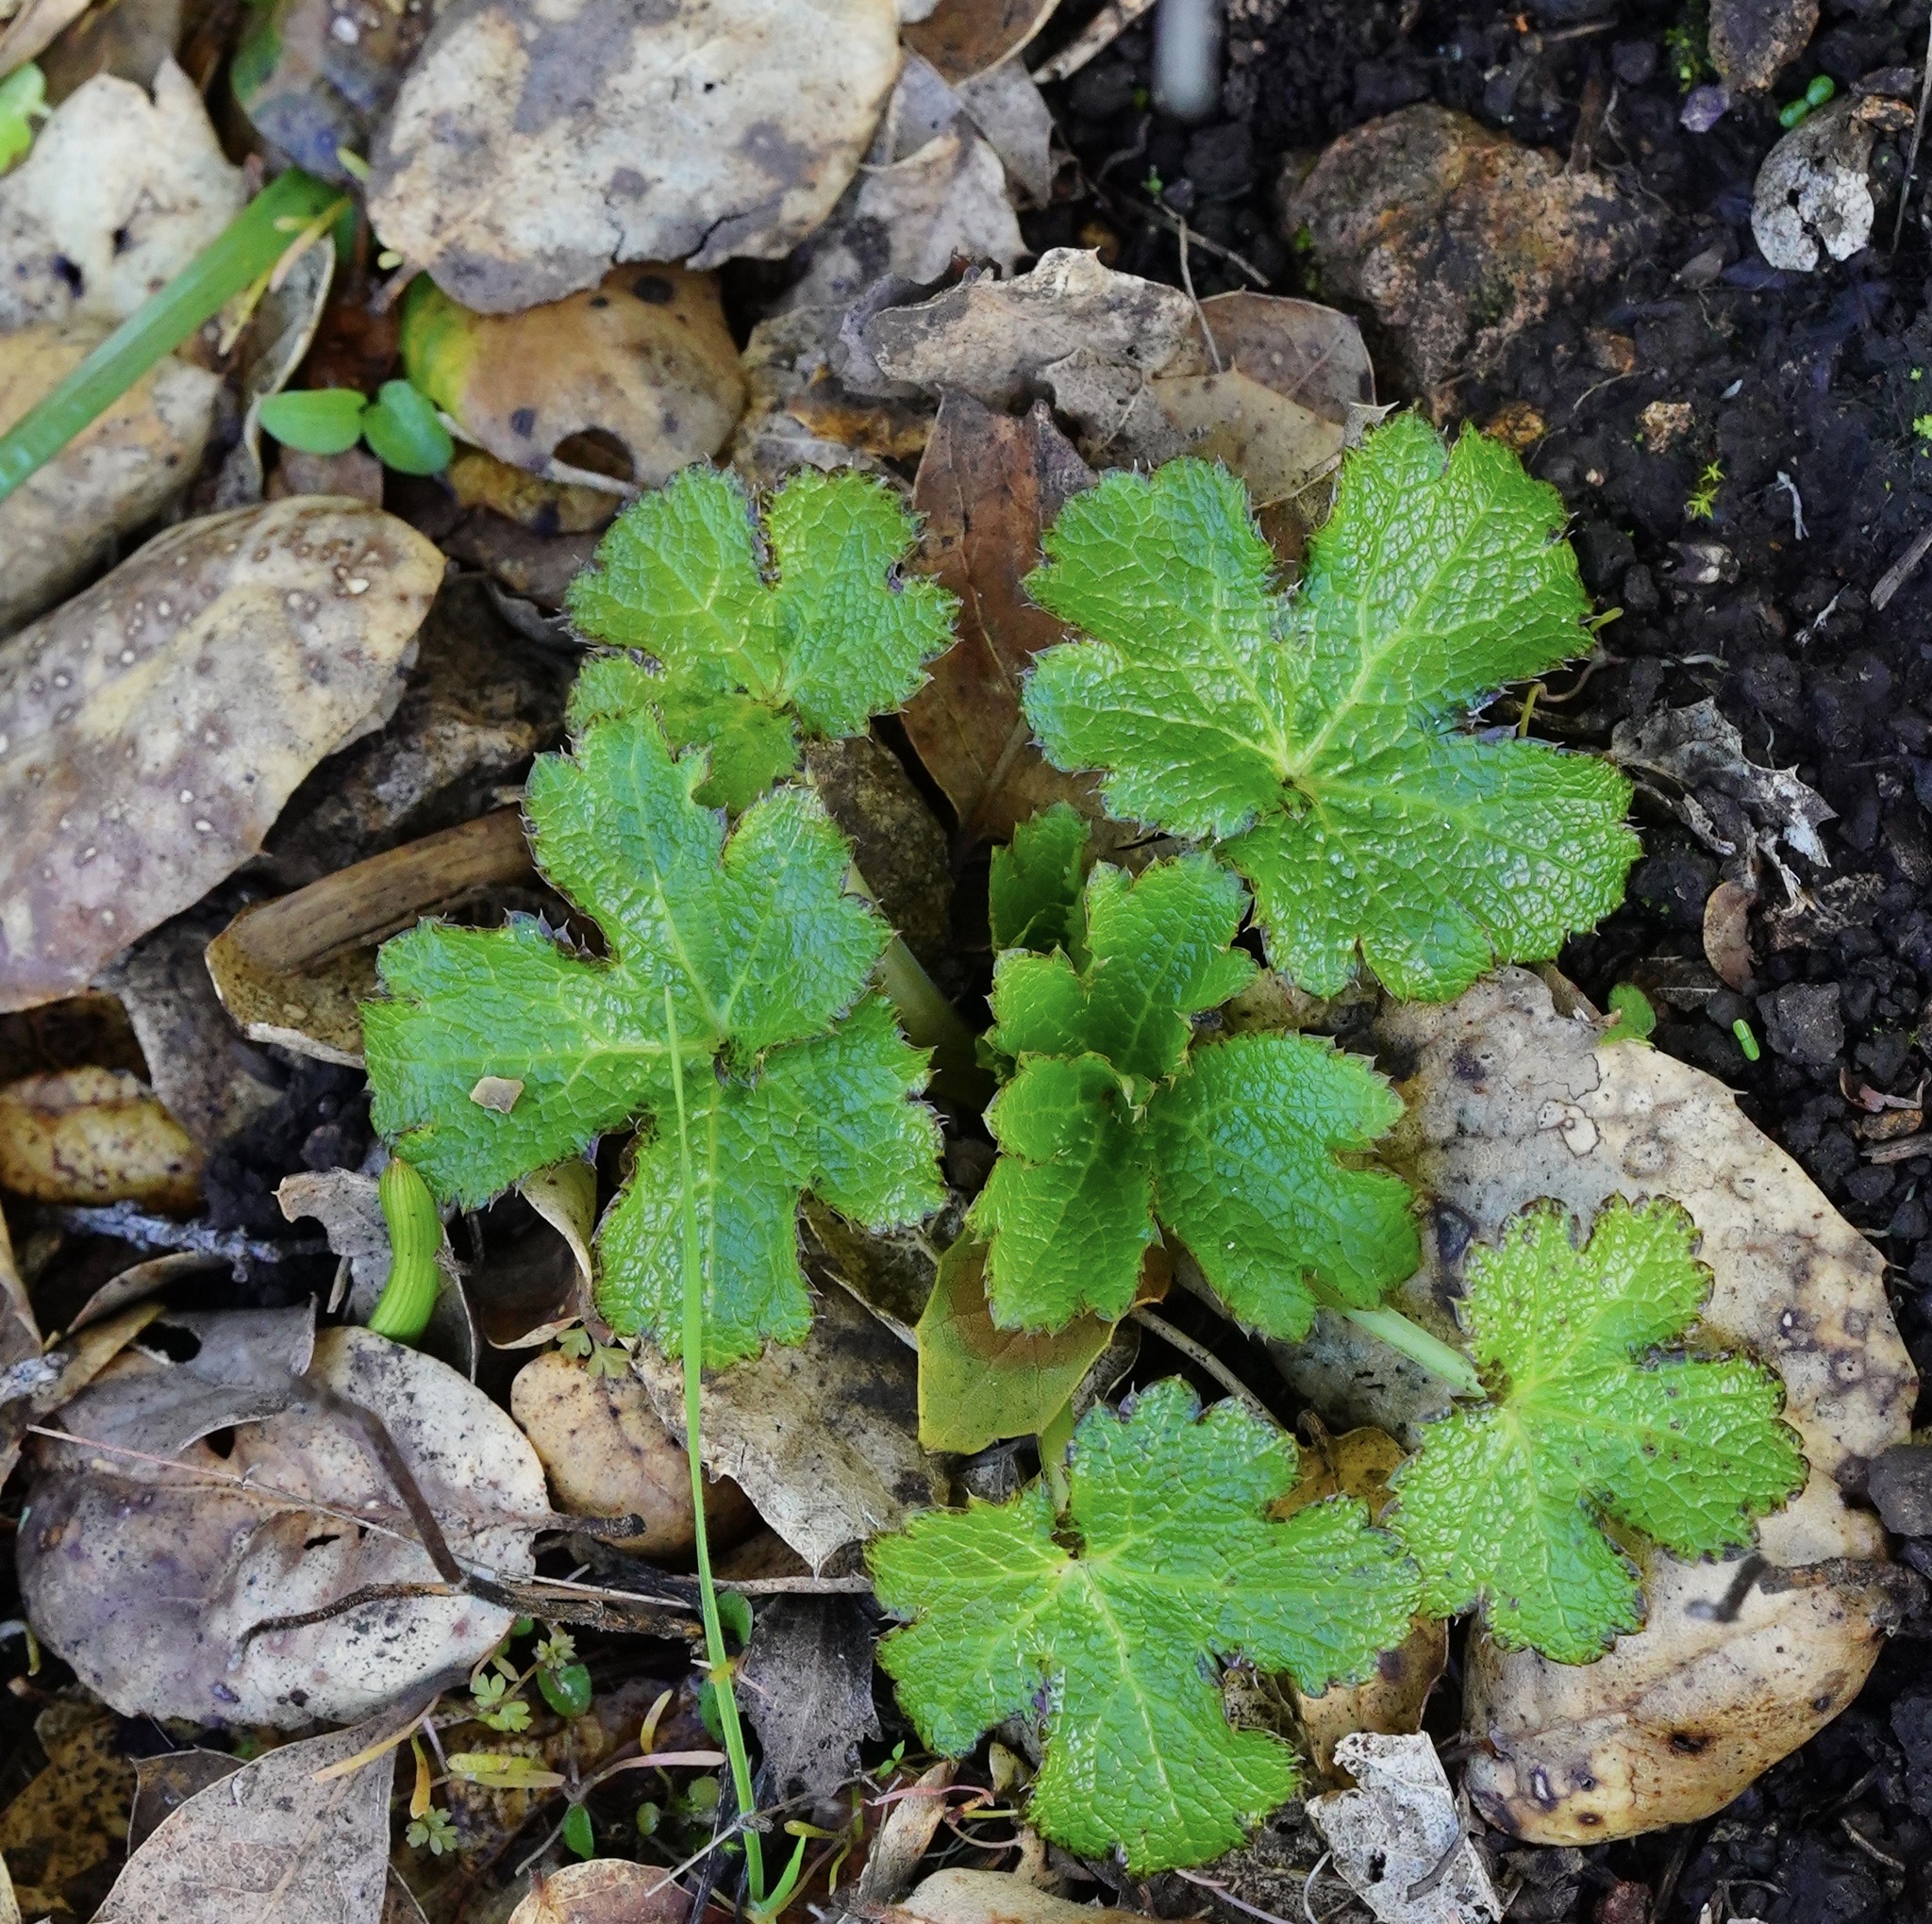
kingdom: Plantae
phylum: Tracheophyta
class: Magnoliopsida
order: Apiales
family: Apiaceae
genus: Sanicula
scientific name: Sanicula crassicaulis
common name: Western snakeroot
